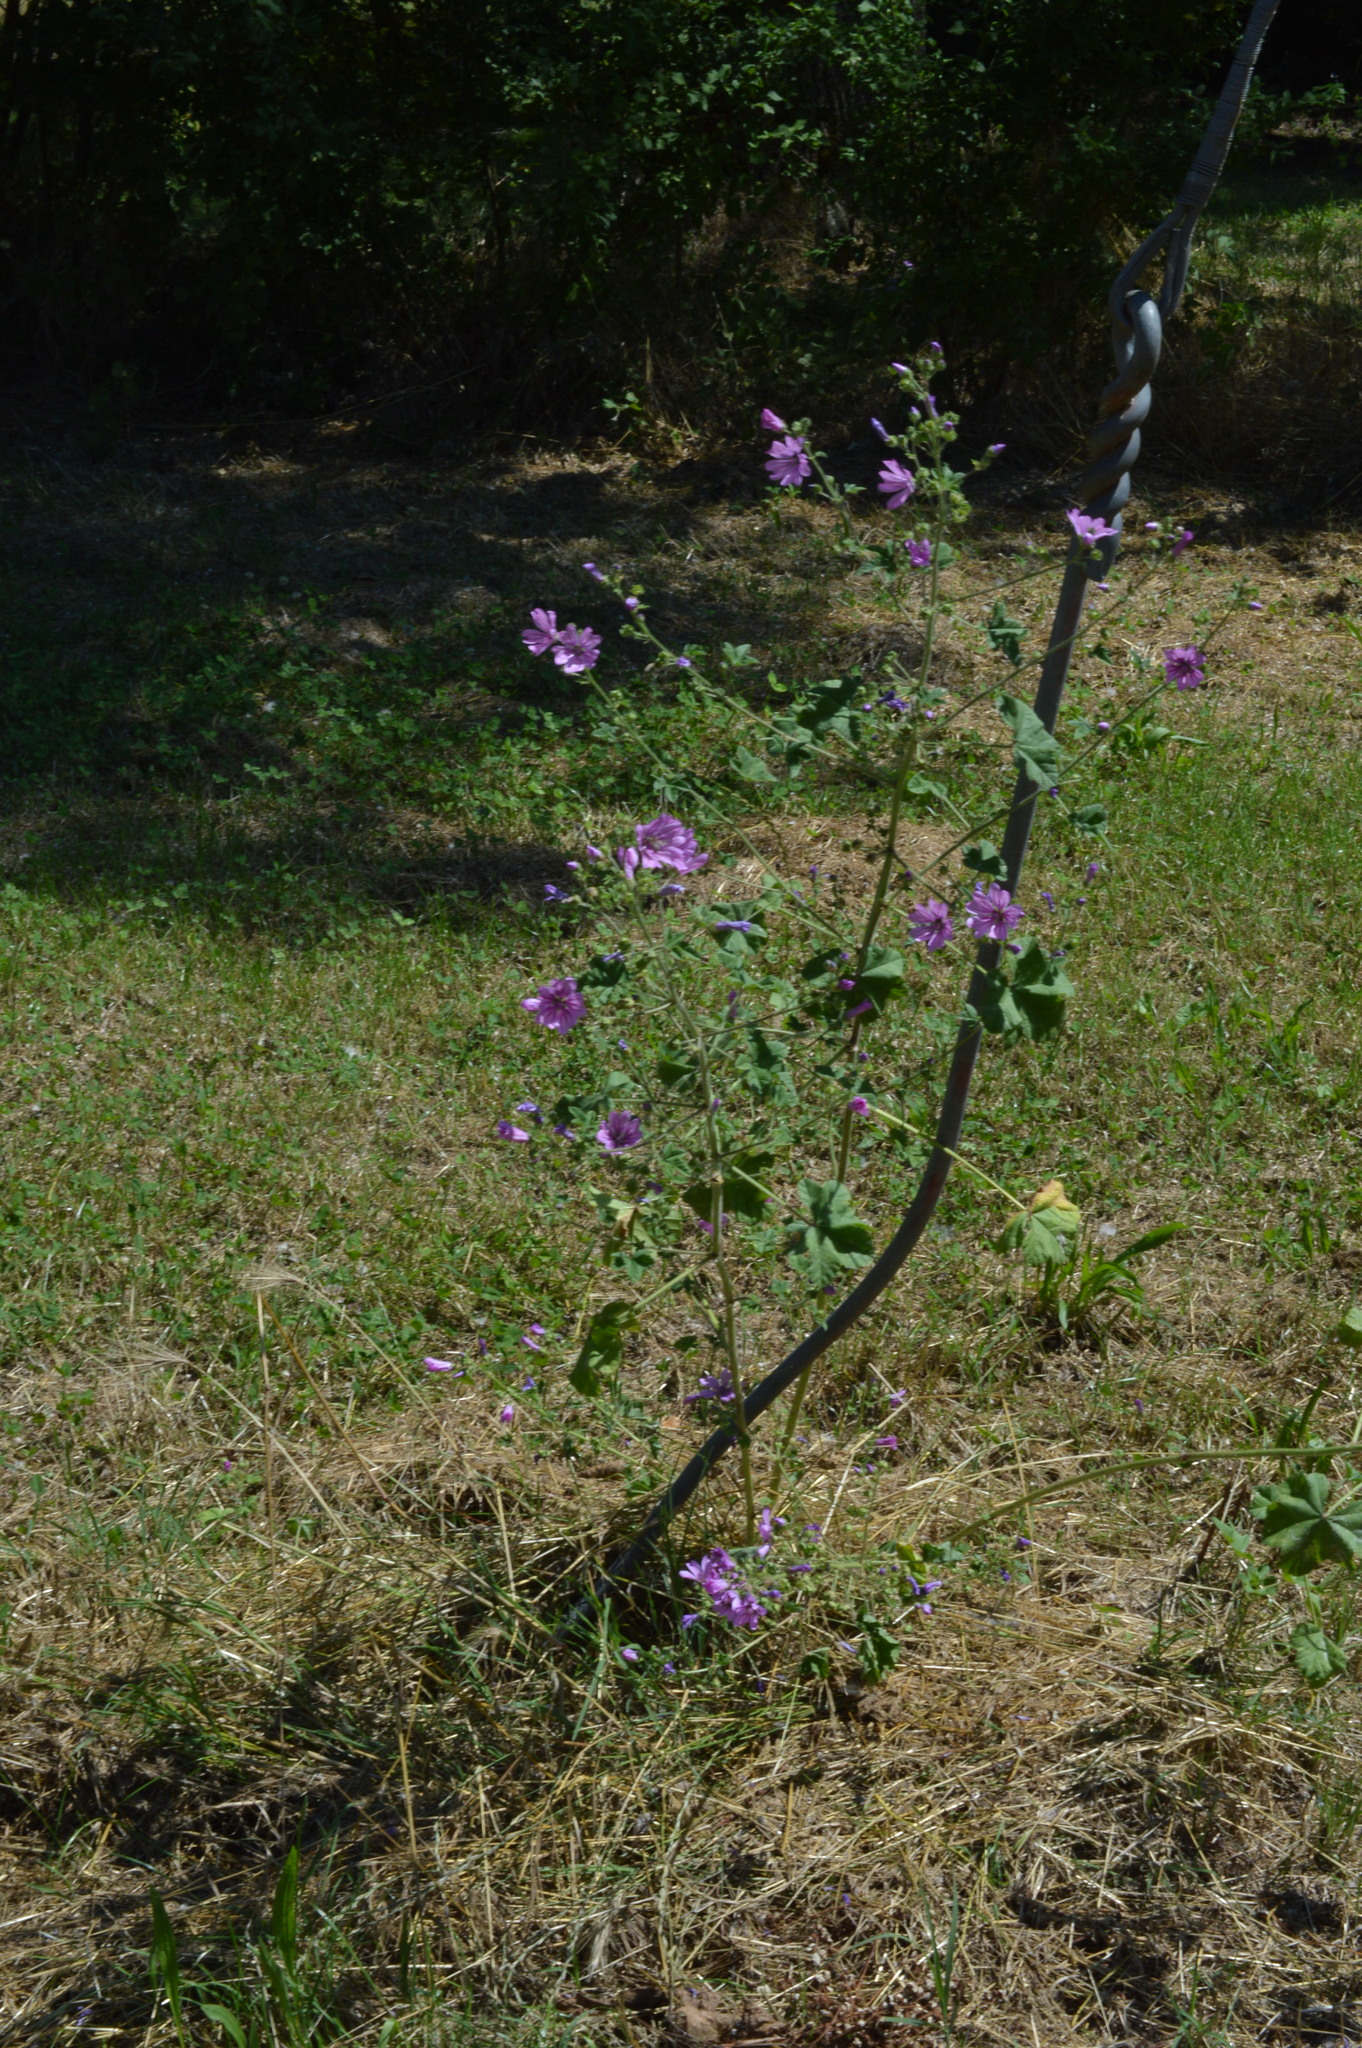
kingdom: Plantae
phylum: Tracheophyta
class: Magnoliopsida
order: Malvales
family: Malvaceae
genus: Malva
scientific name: Malva sylvestris
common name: Common mallow
